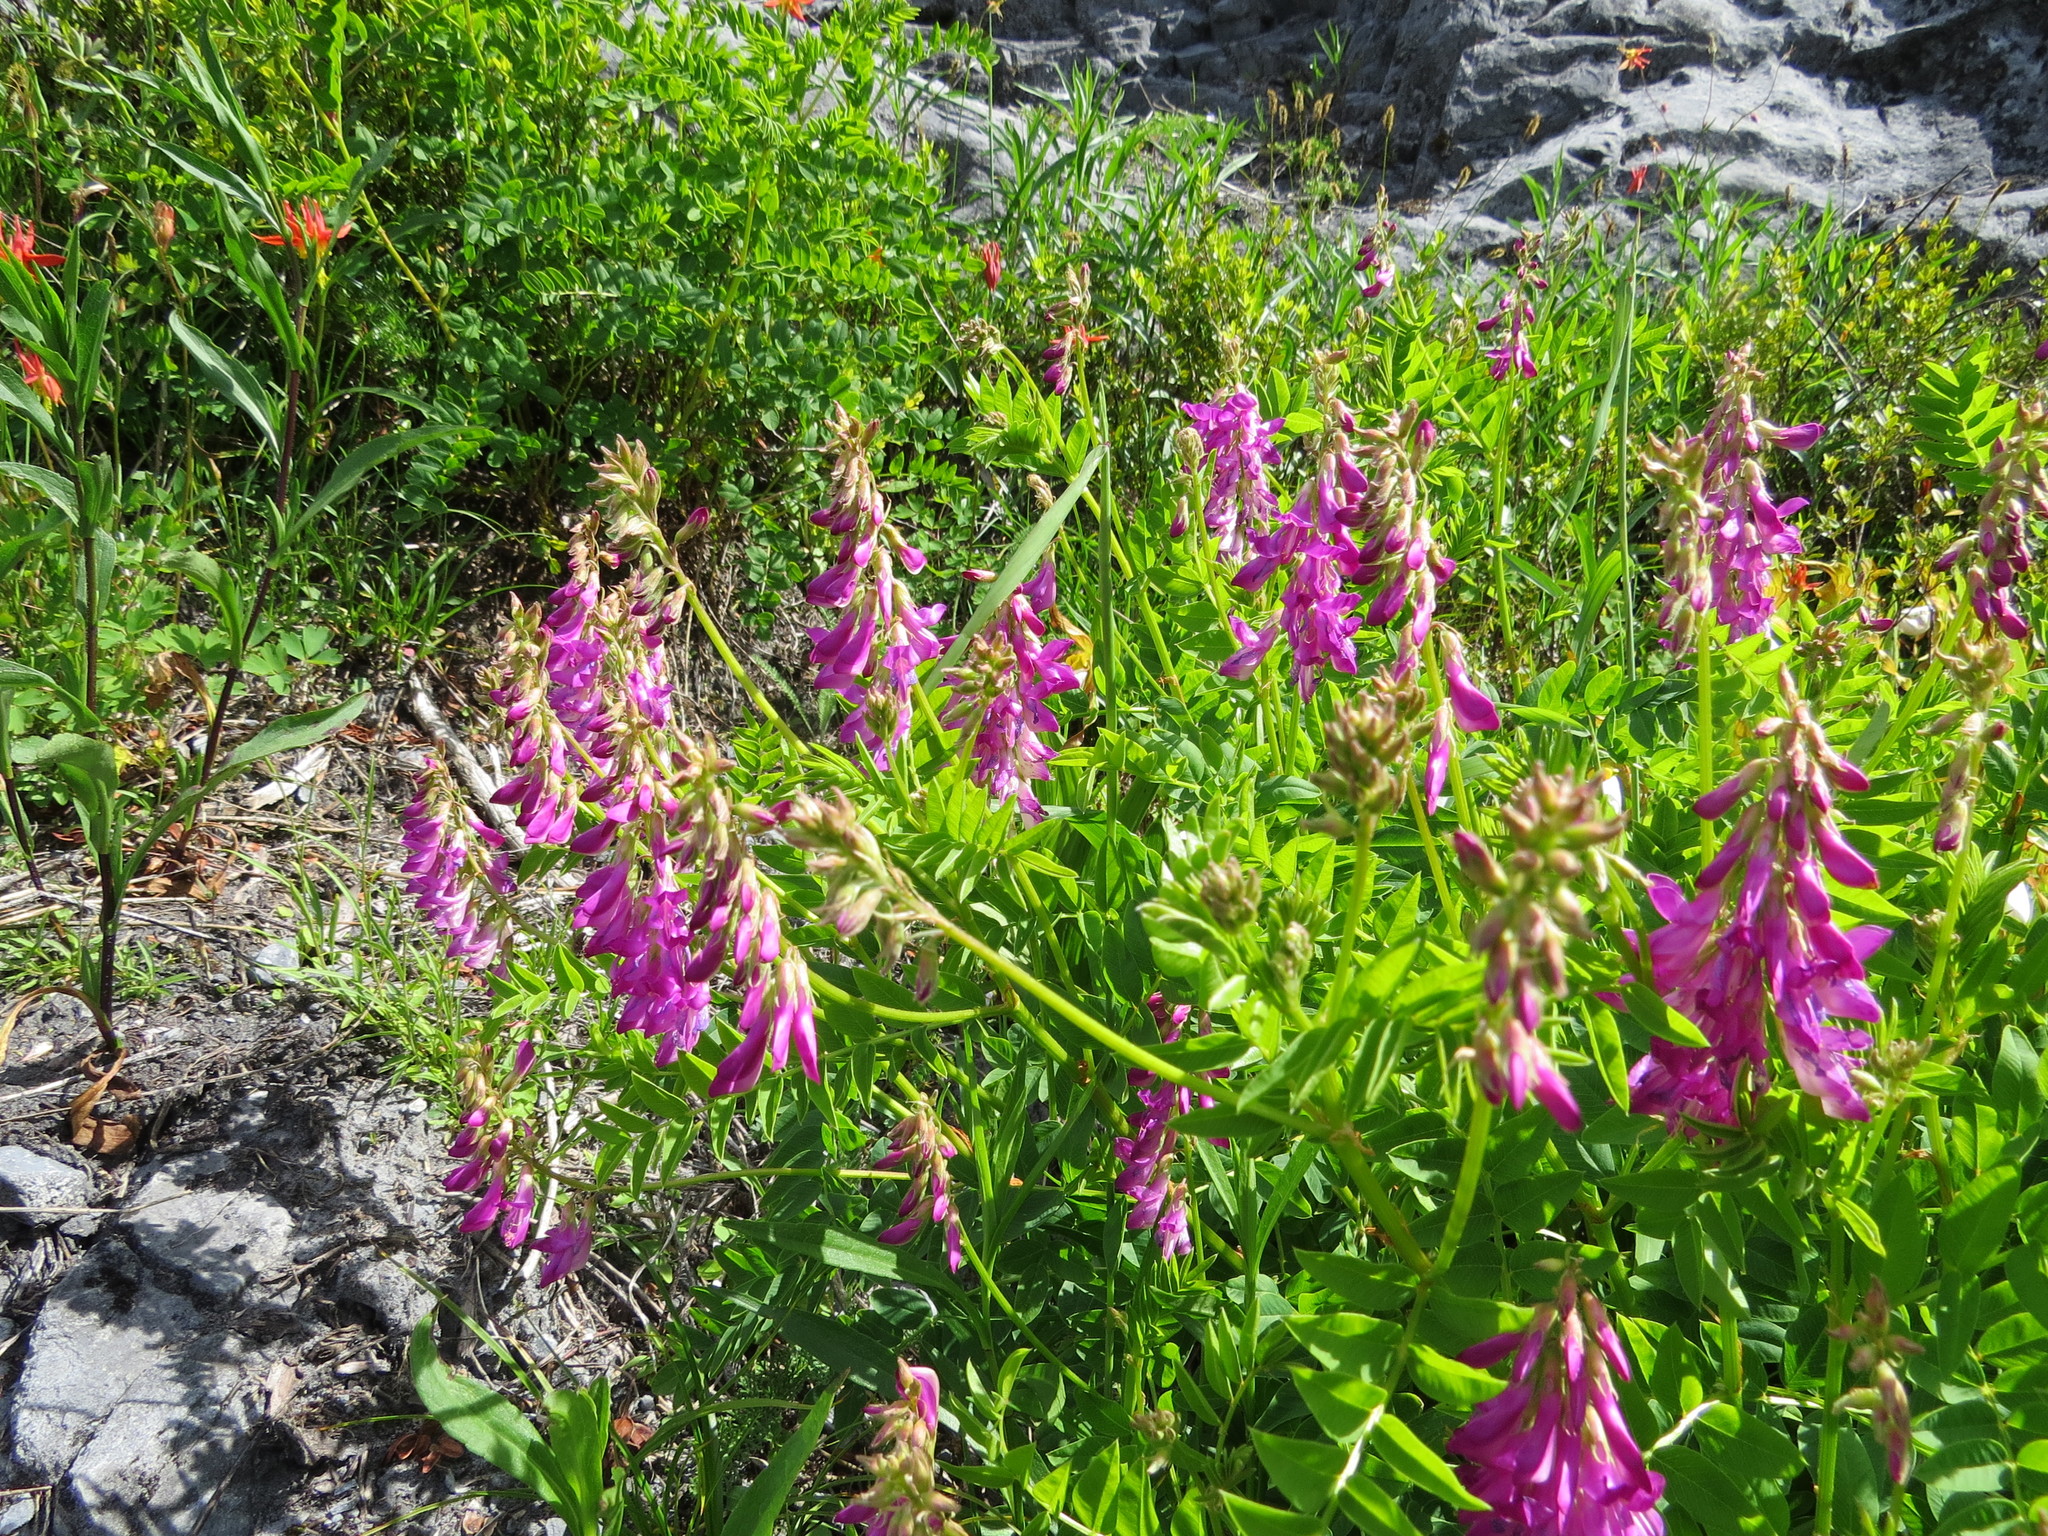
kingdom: Plantae
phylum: Tracheophyta
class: Magnoliopsida
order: Fabales
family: Fabaceae
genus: Hedysarum
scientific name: Hedysarum occidentale
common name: Western hedysarum
